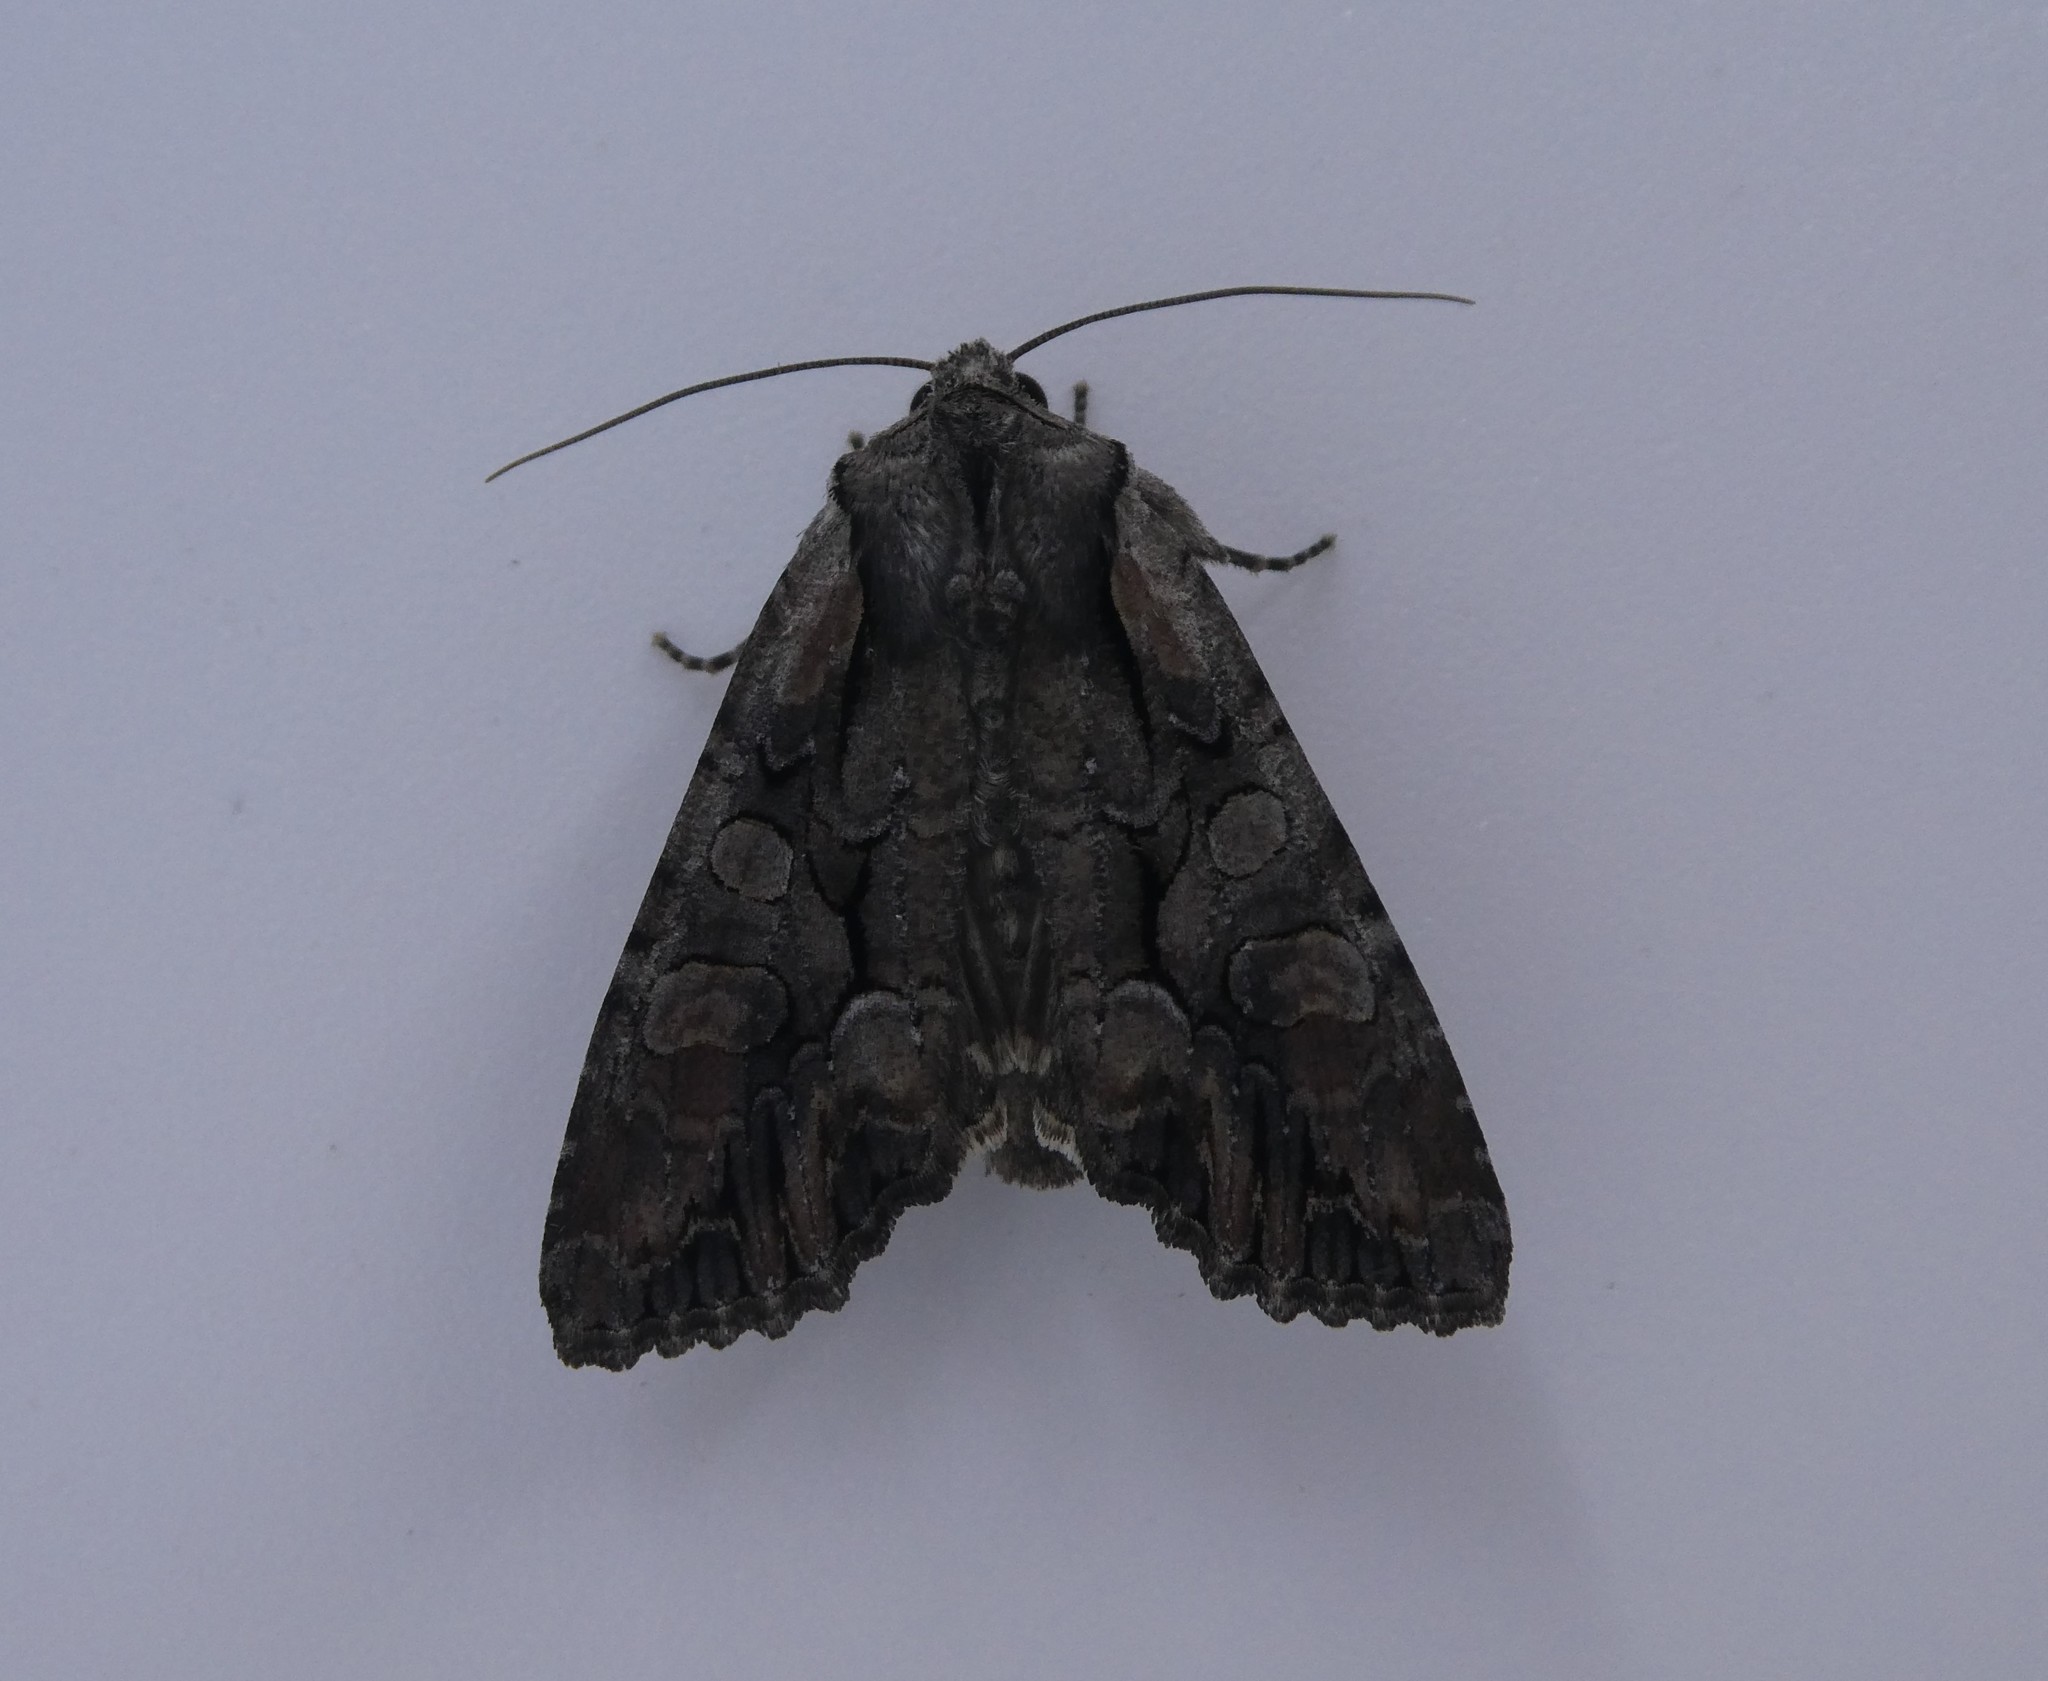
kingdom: Animalia
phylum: Arthropoda
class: Insecta
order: Lepidoptera
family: Noctuidae
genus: Lacanobia
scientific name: Lacanobia subjuncta
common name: Speckled cutworm moth
